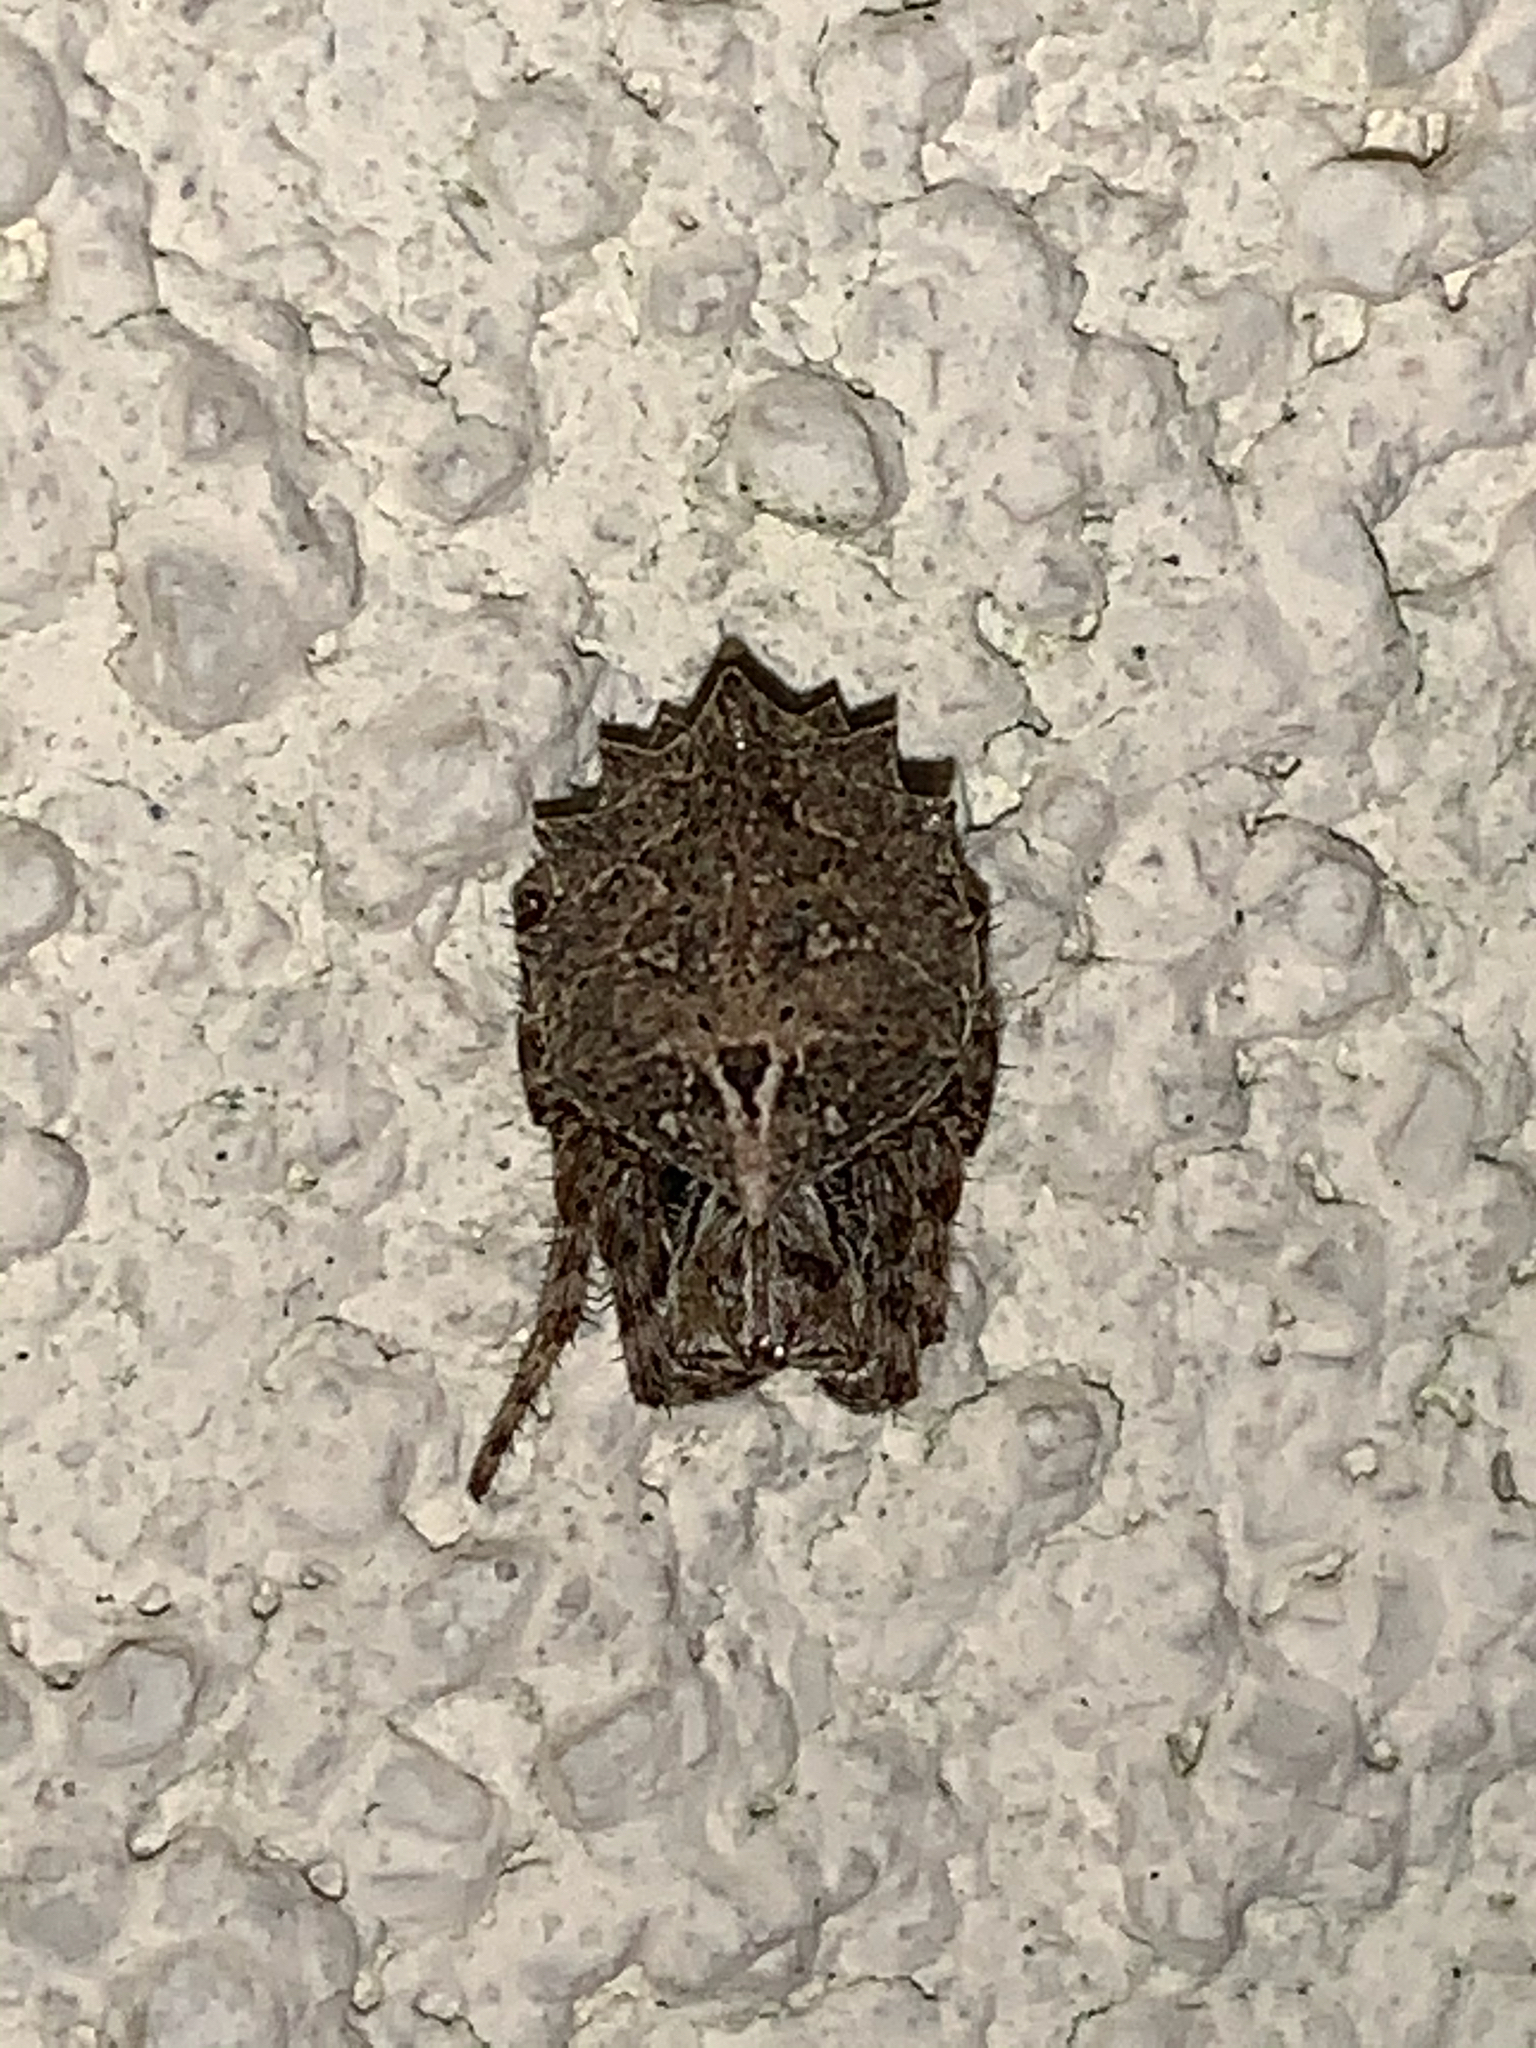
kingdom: Animalia
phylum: Arthropoda
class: Arachnida
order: Araneae
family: Araneidae
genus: Acanthepeira
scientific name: Acanthepeira stellata
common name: Starbellied orbweaver
